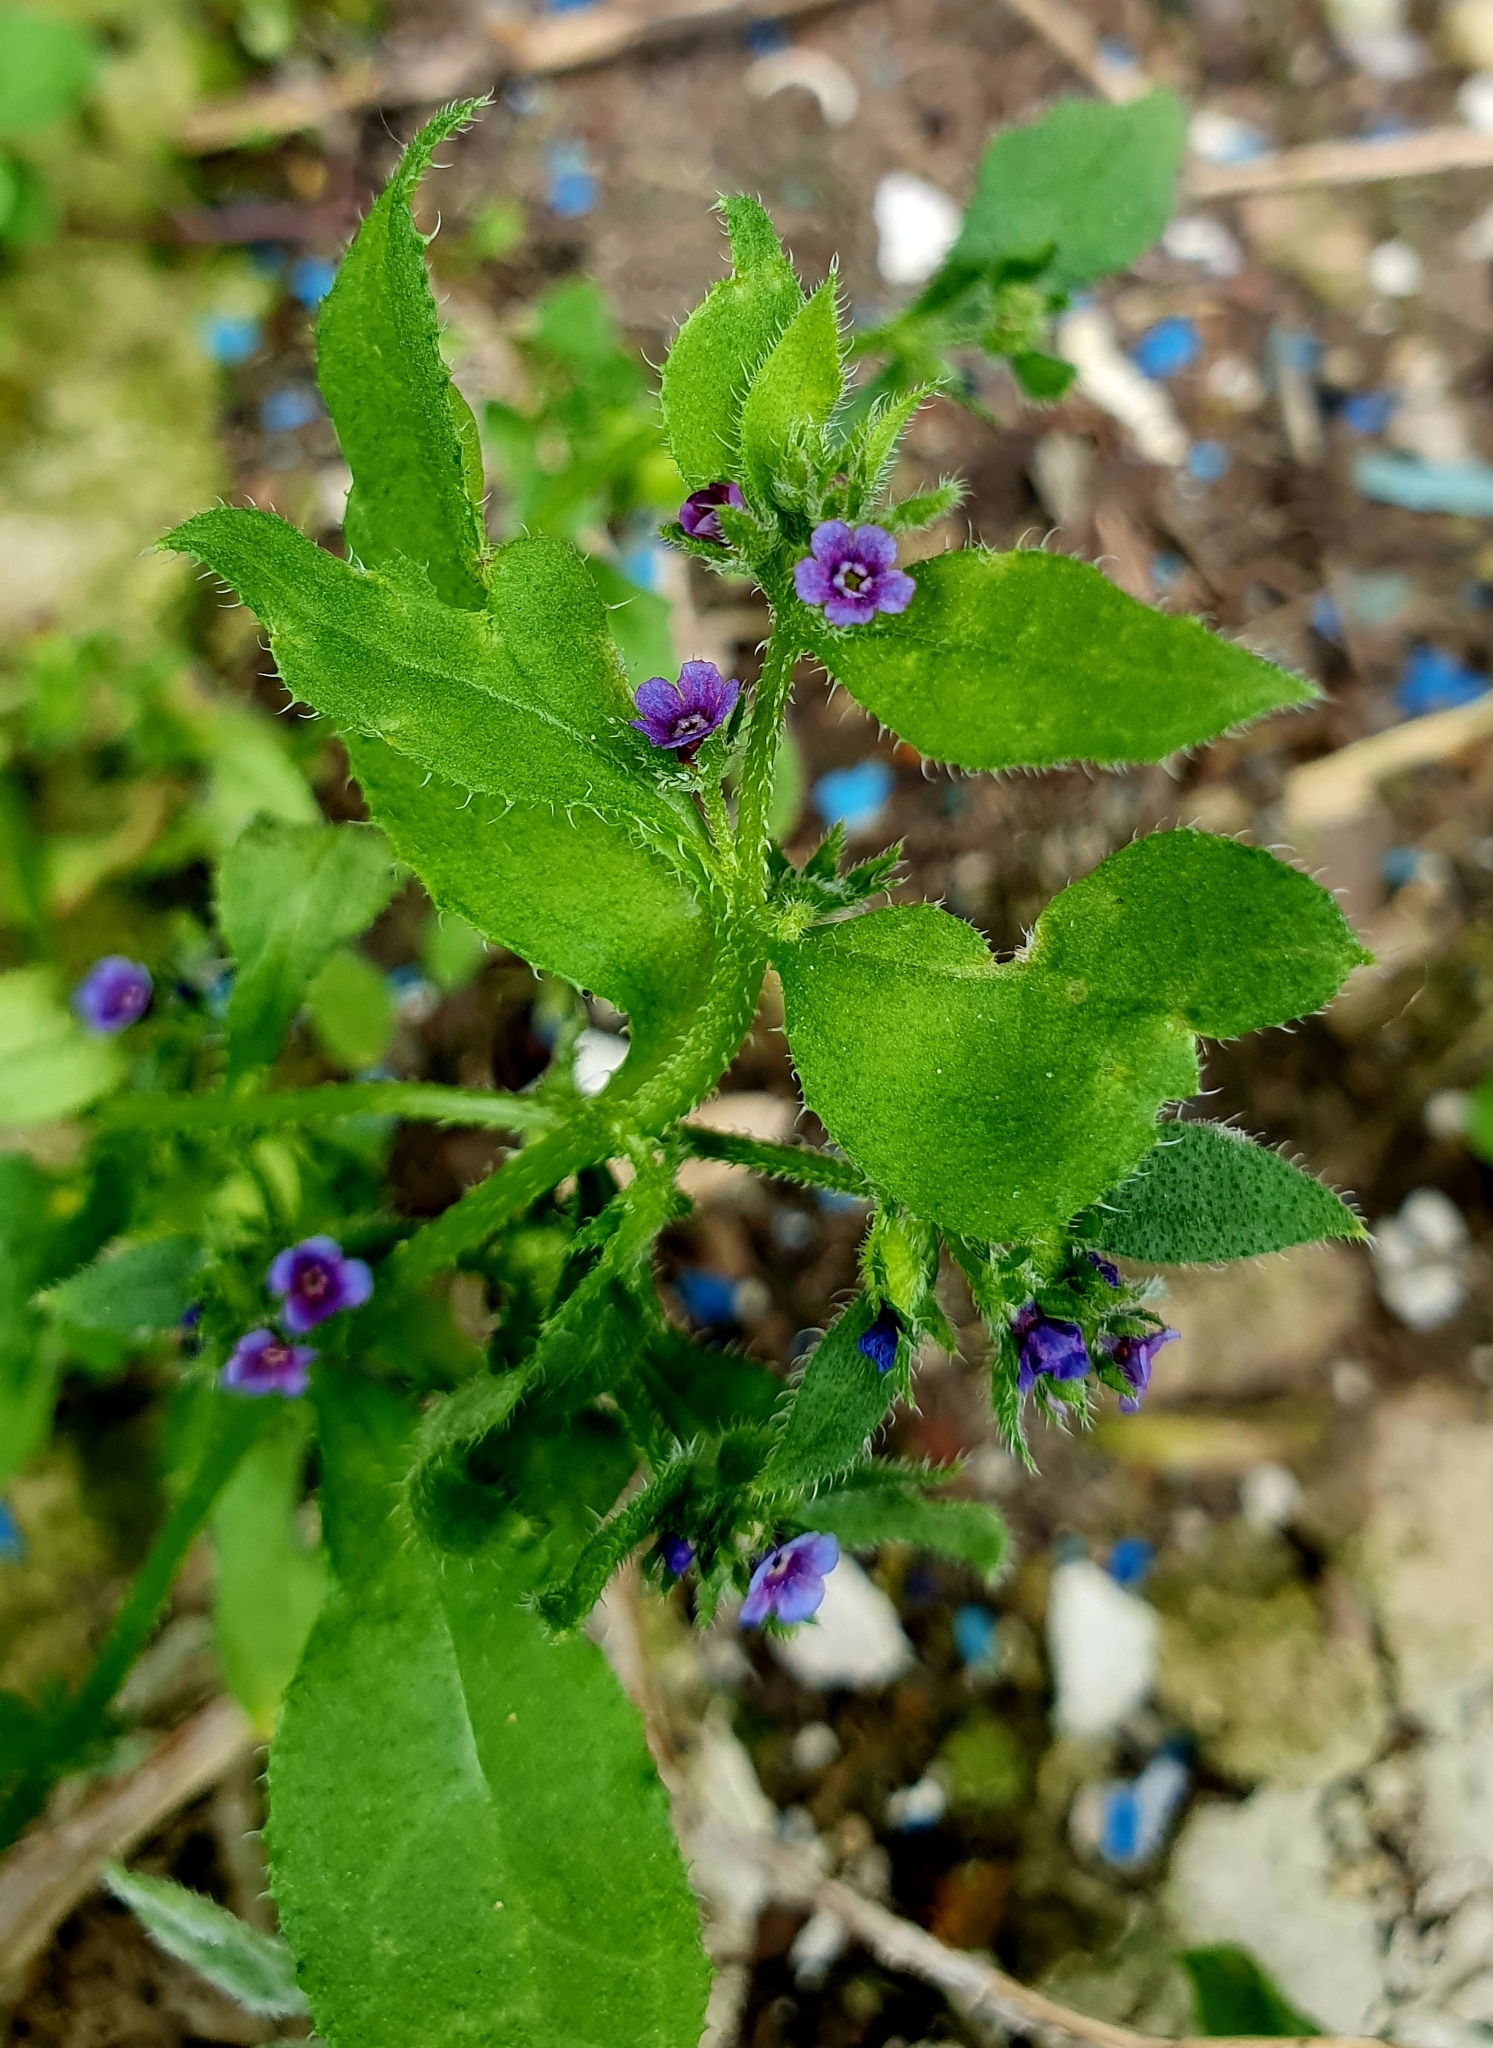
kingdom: Plantae
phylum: Tracheophyta
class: Magnoliopsida
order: Boraginales
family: Boraginaceae
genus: Asperugo
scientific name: Asperugo procumbens
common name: Madwort
